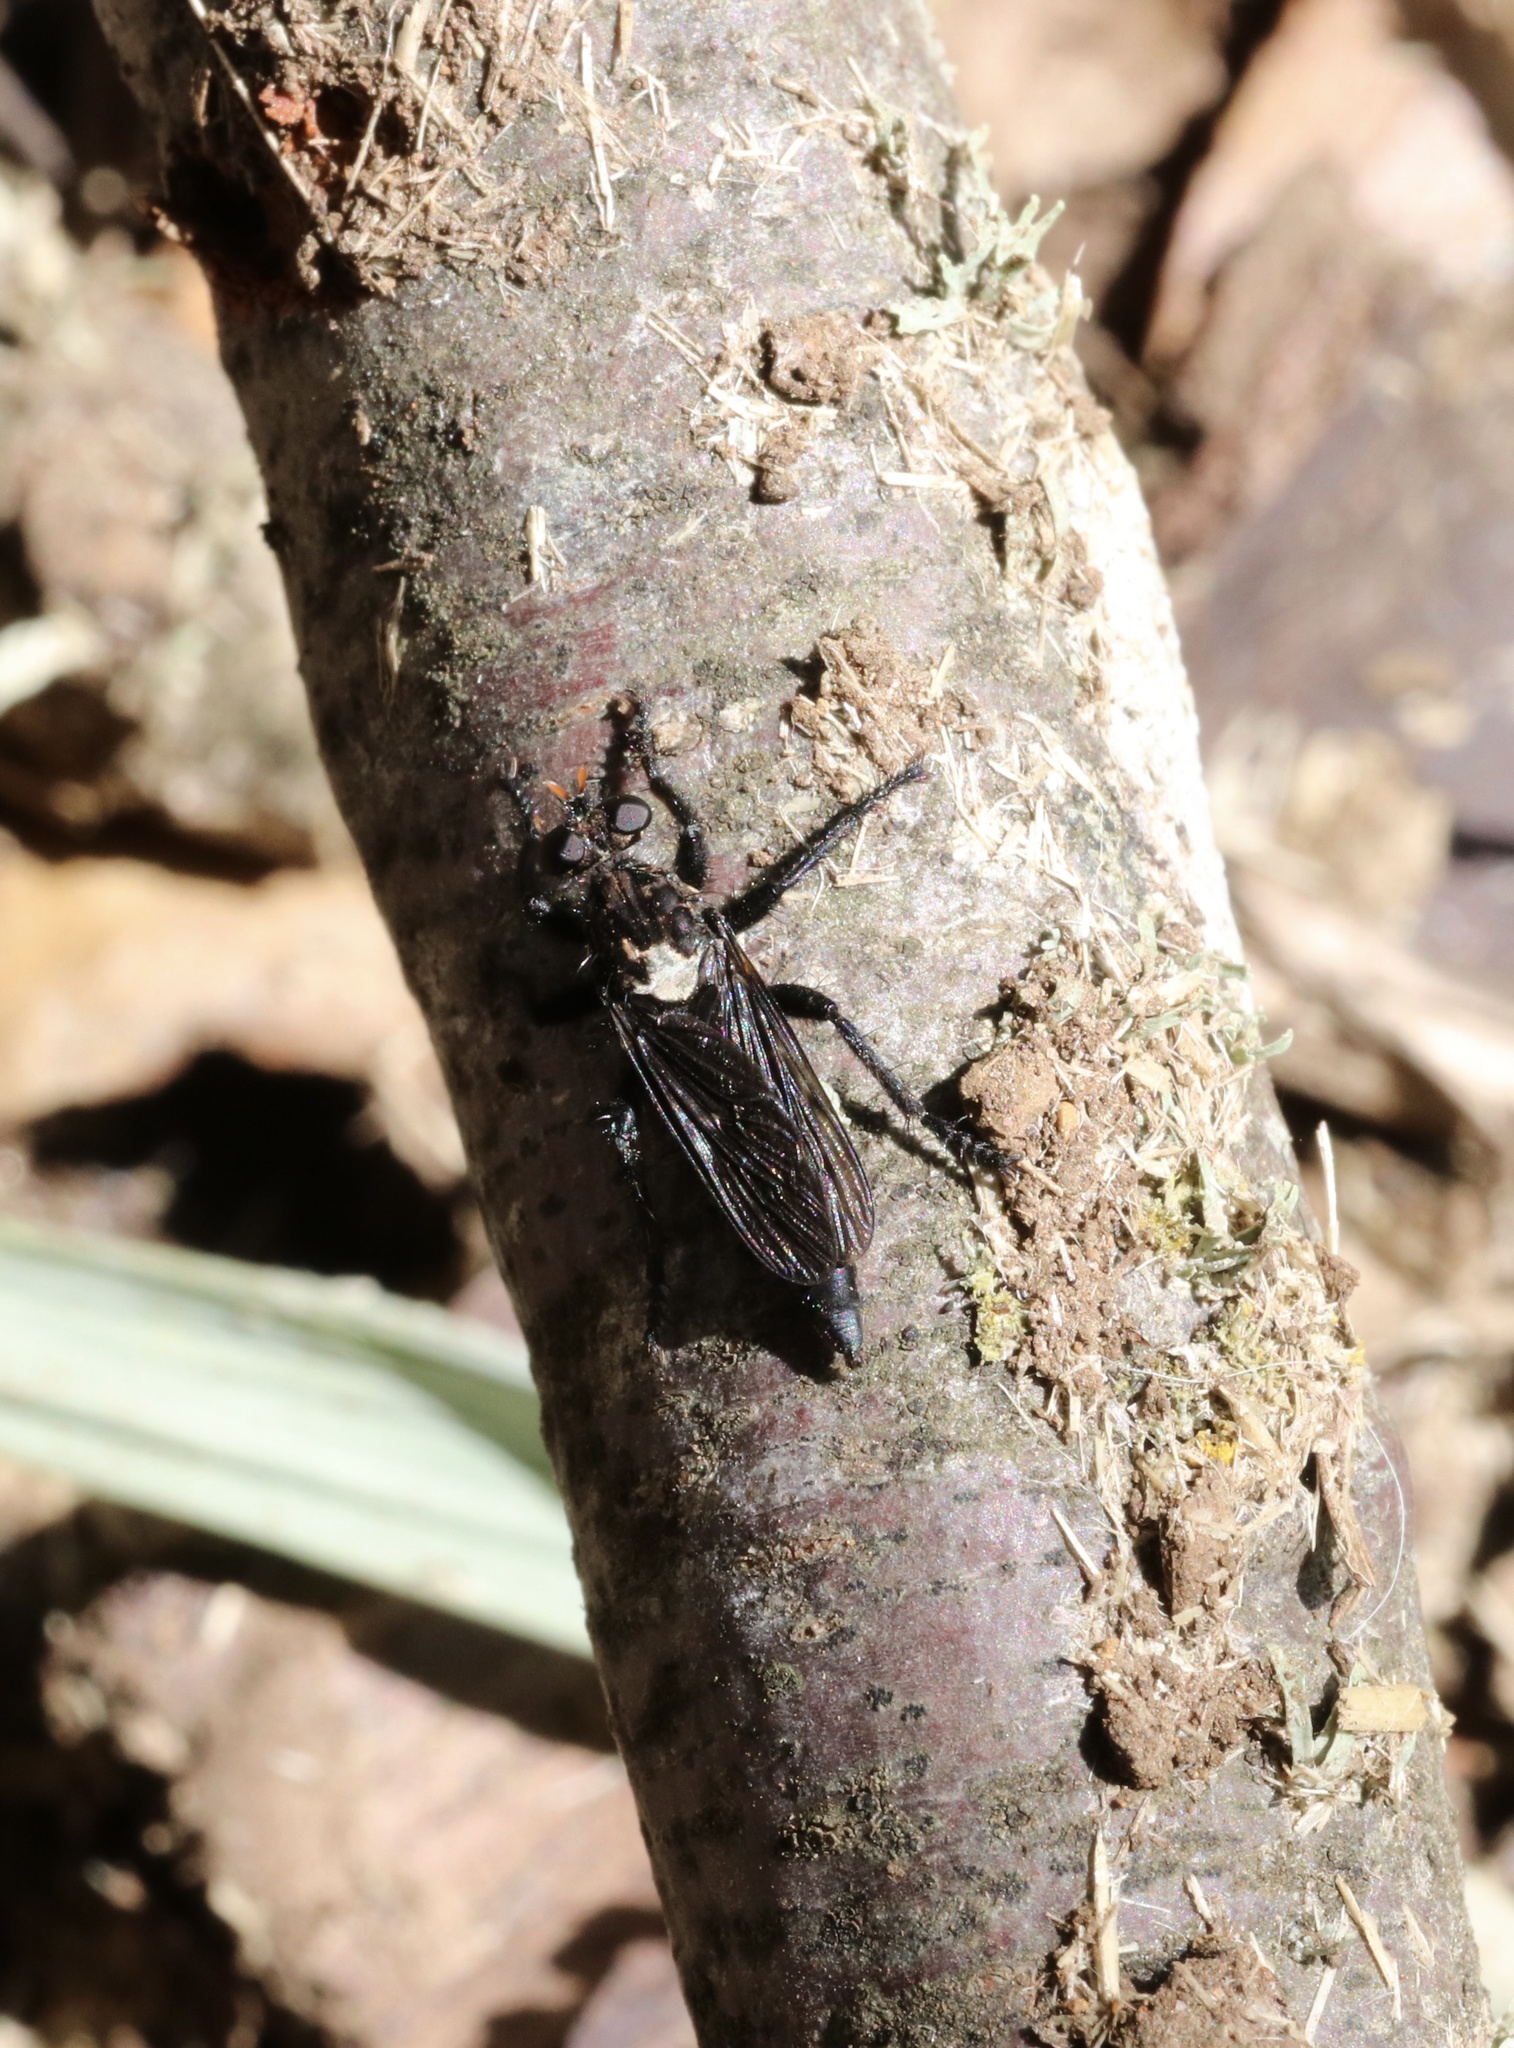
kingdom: Animalia
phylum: Arthropoda
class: Insecta
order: Diptera
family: Asilidae
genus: Pritchardia
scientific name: Pritchardia hirtipes
